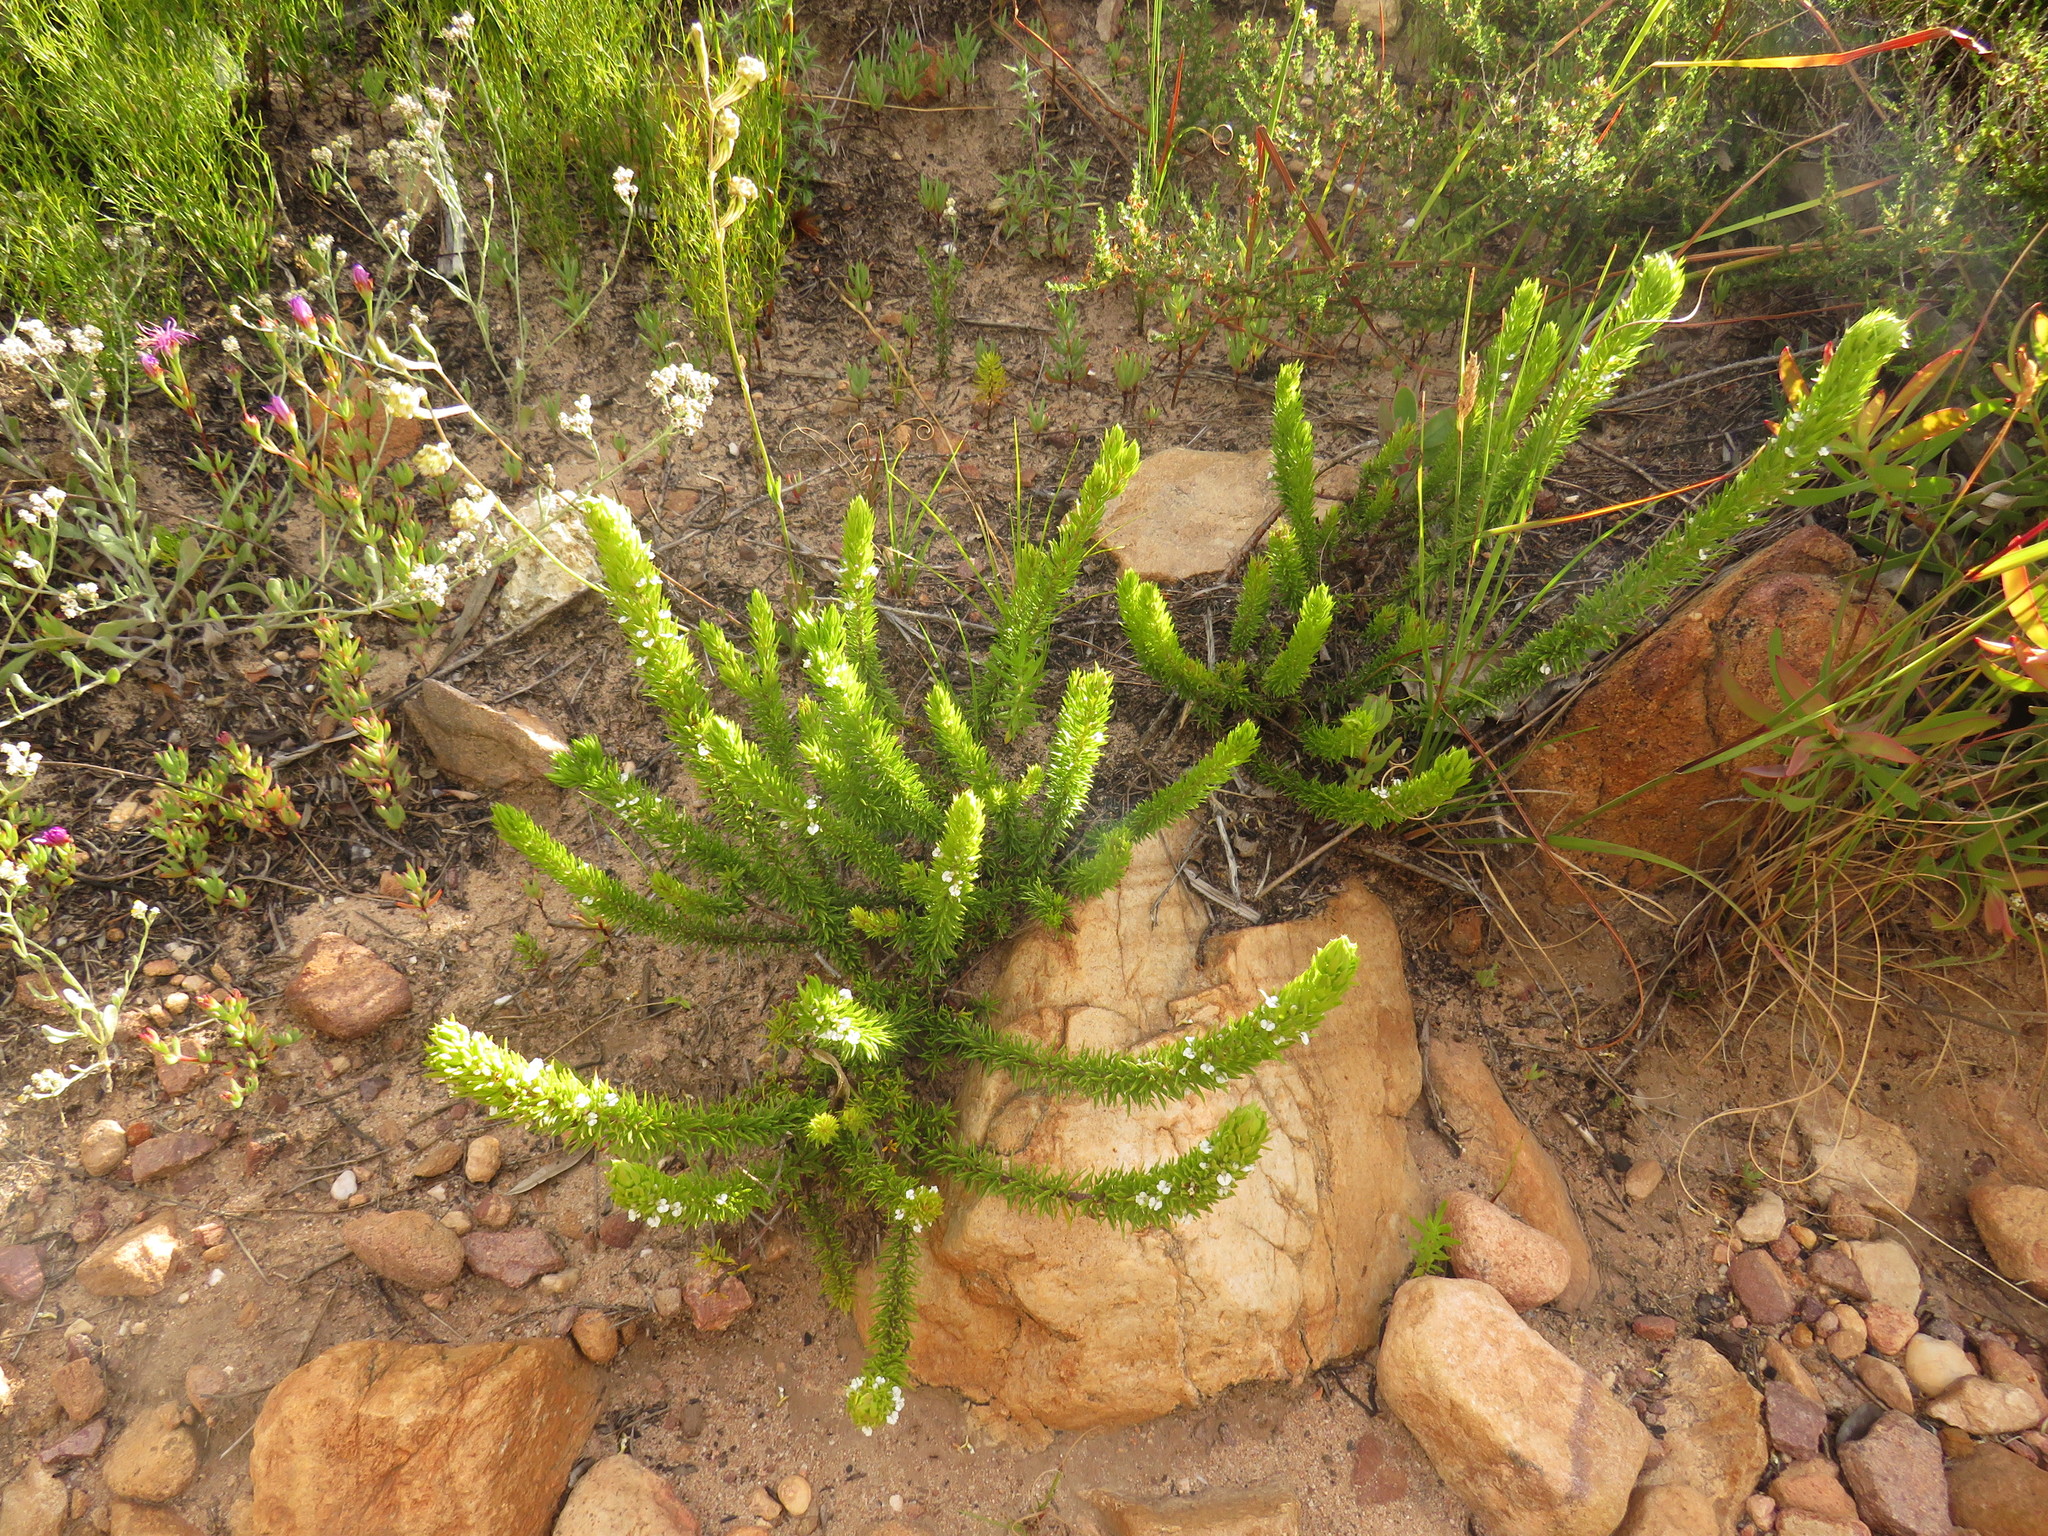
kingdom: Plantae
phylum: Tracheophyta
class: Magnoliopsida
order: Fabales
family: Polygalaceae
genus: Muraltia
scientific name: Muraltia alba
